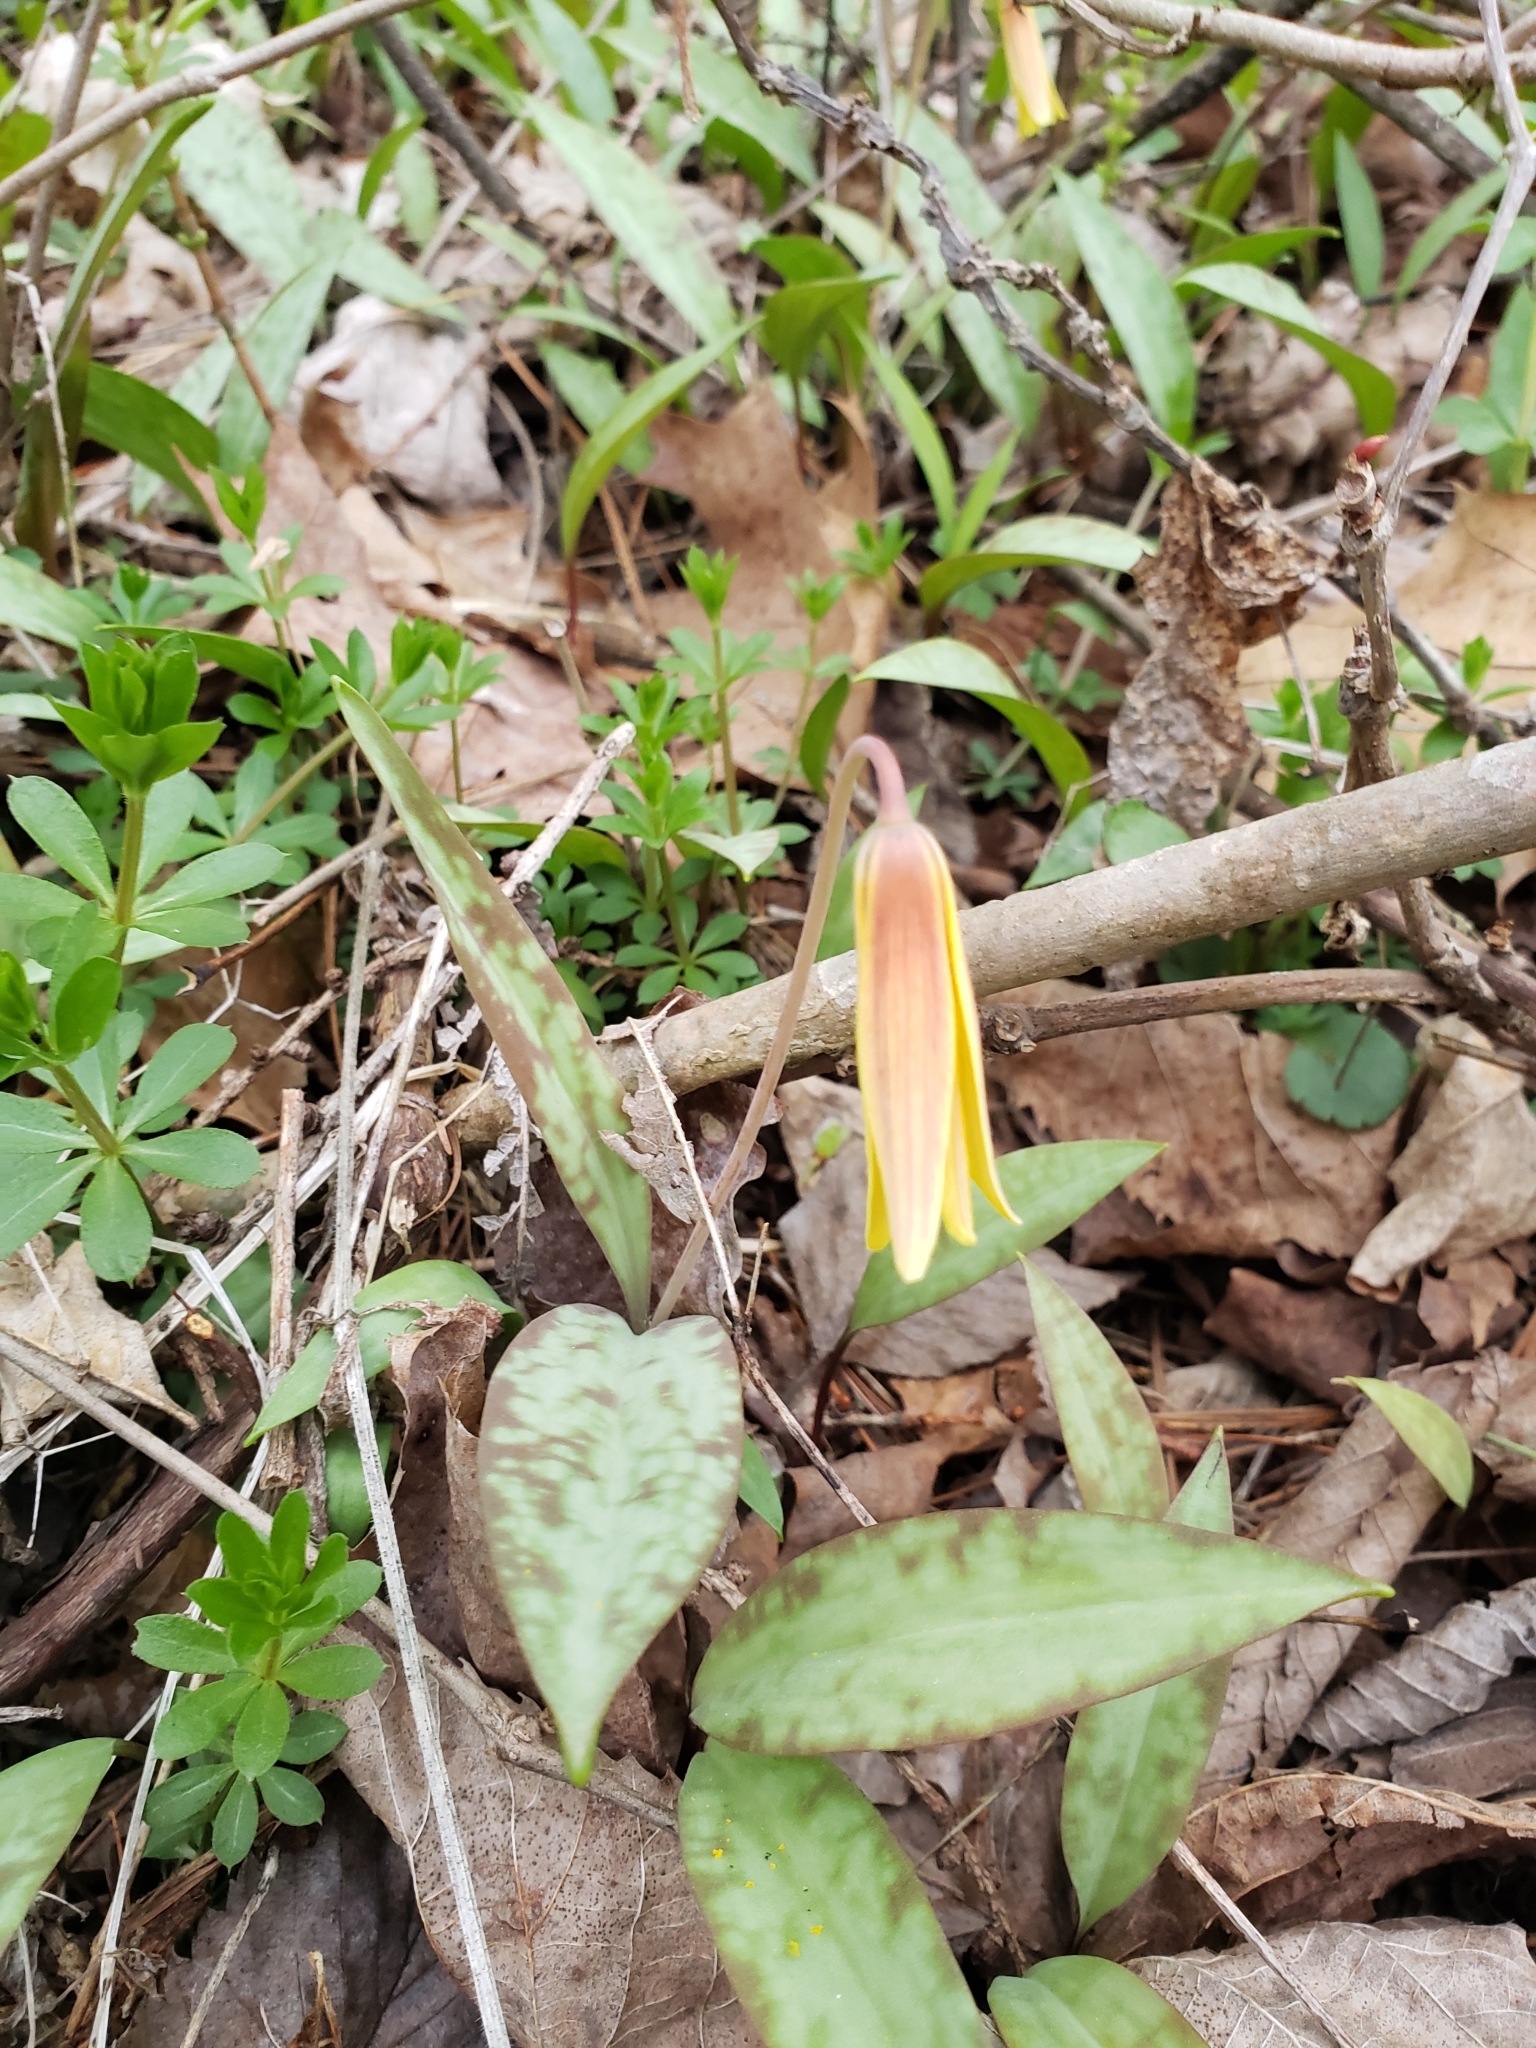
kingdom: Plantae
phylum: Tracheophyta
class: Liliopsida
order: Liliales
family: Liliaceae
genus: Erythronium
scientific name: Erythronium americanum
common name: Yellow adder's-tongue
